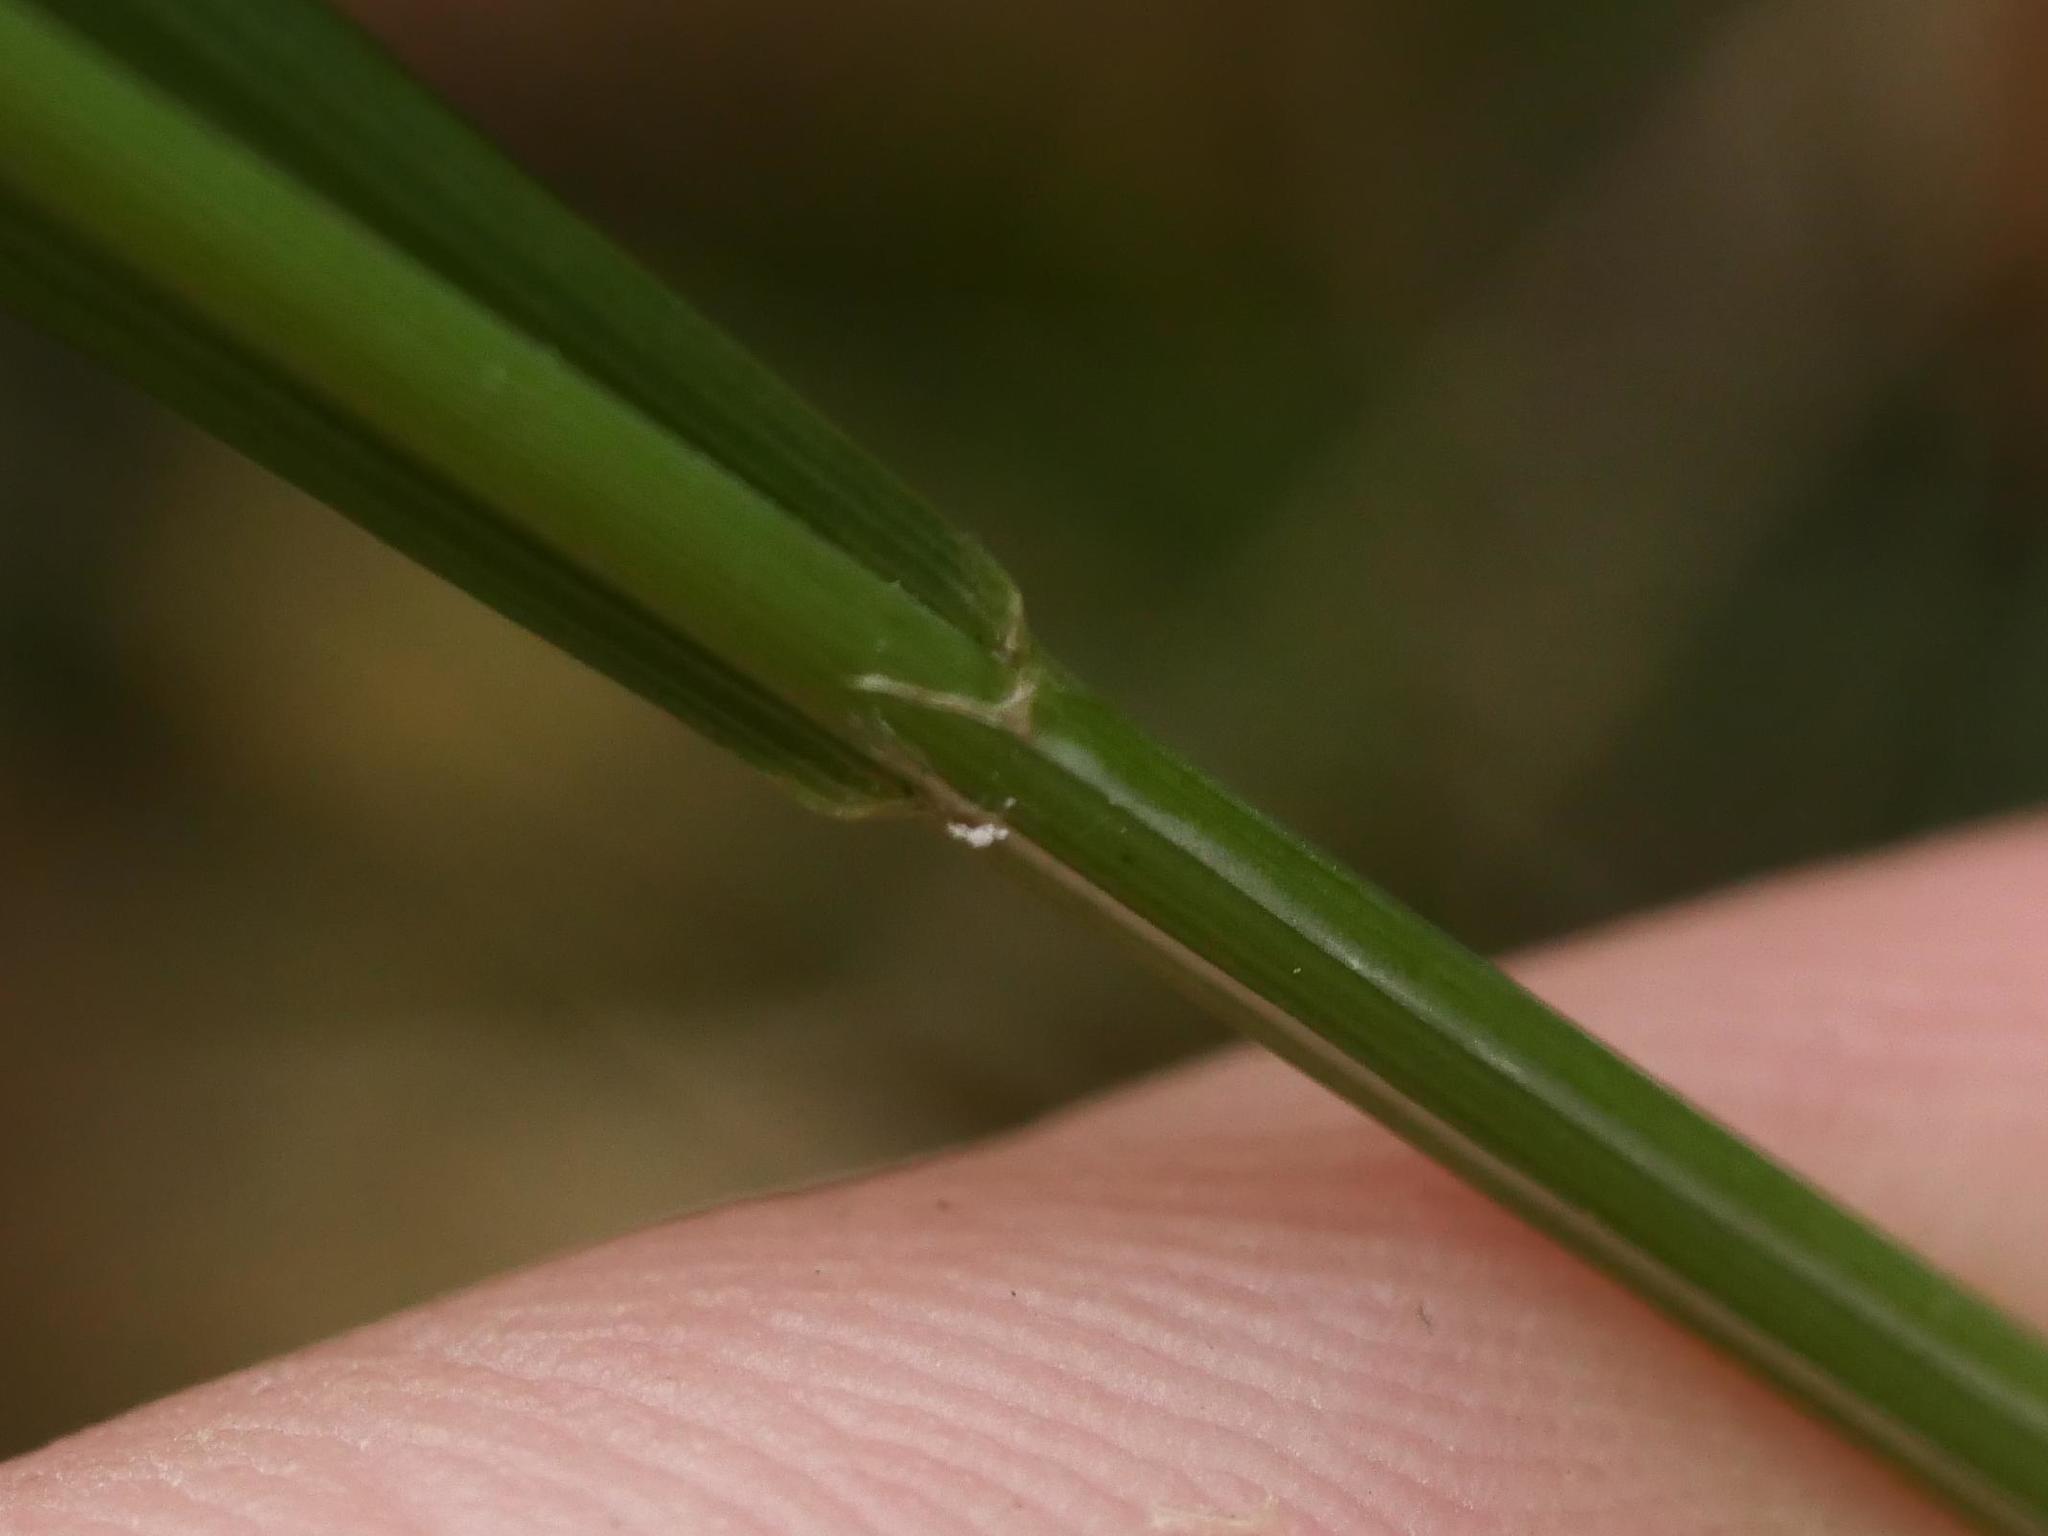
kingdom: Plantae
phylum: Tracheophyta
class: Liliopsida
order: Poales
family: Poaceae
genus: Poa
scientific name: Poa nemoralis
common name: Wood bluegrass
